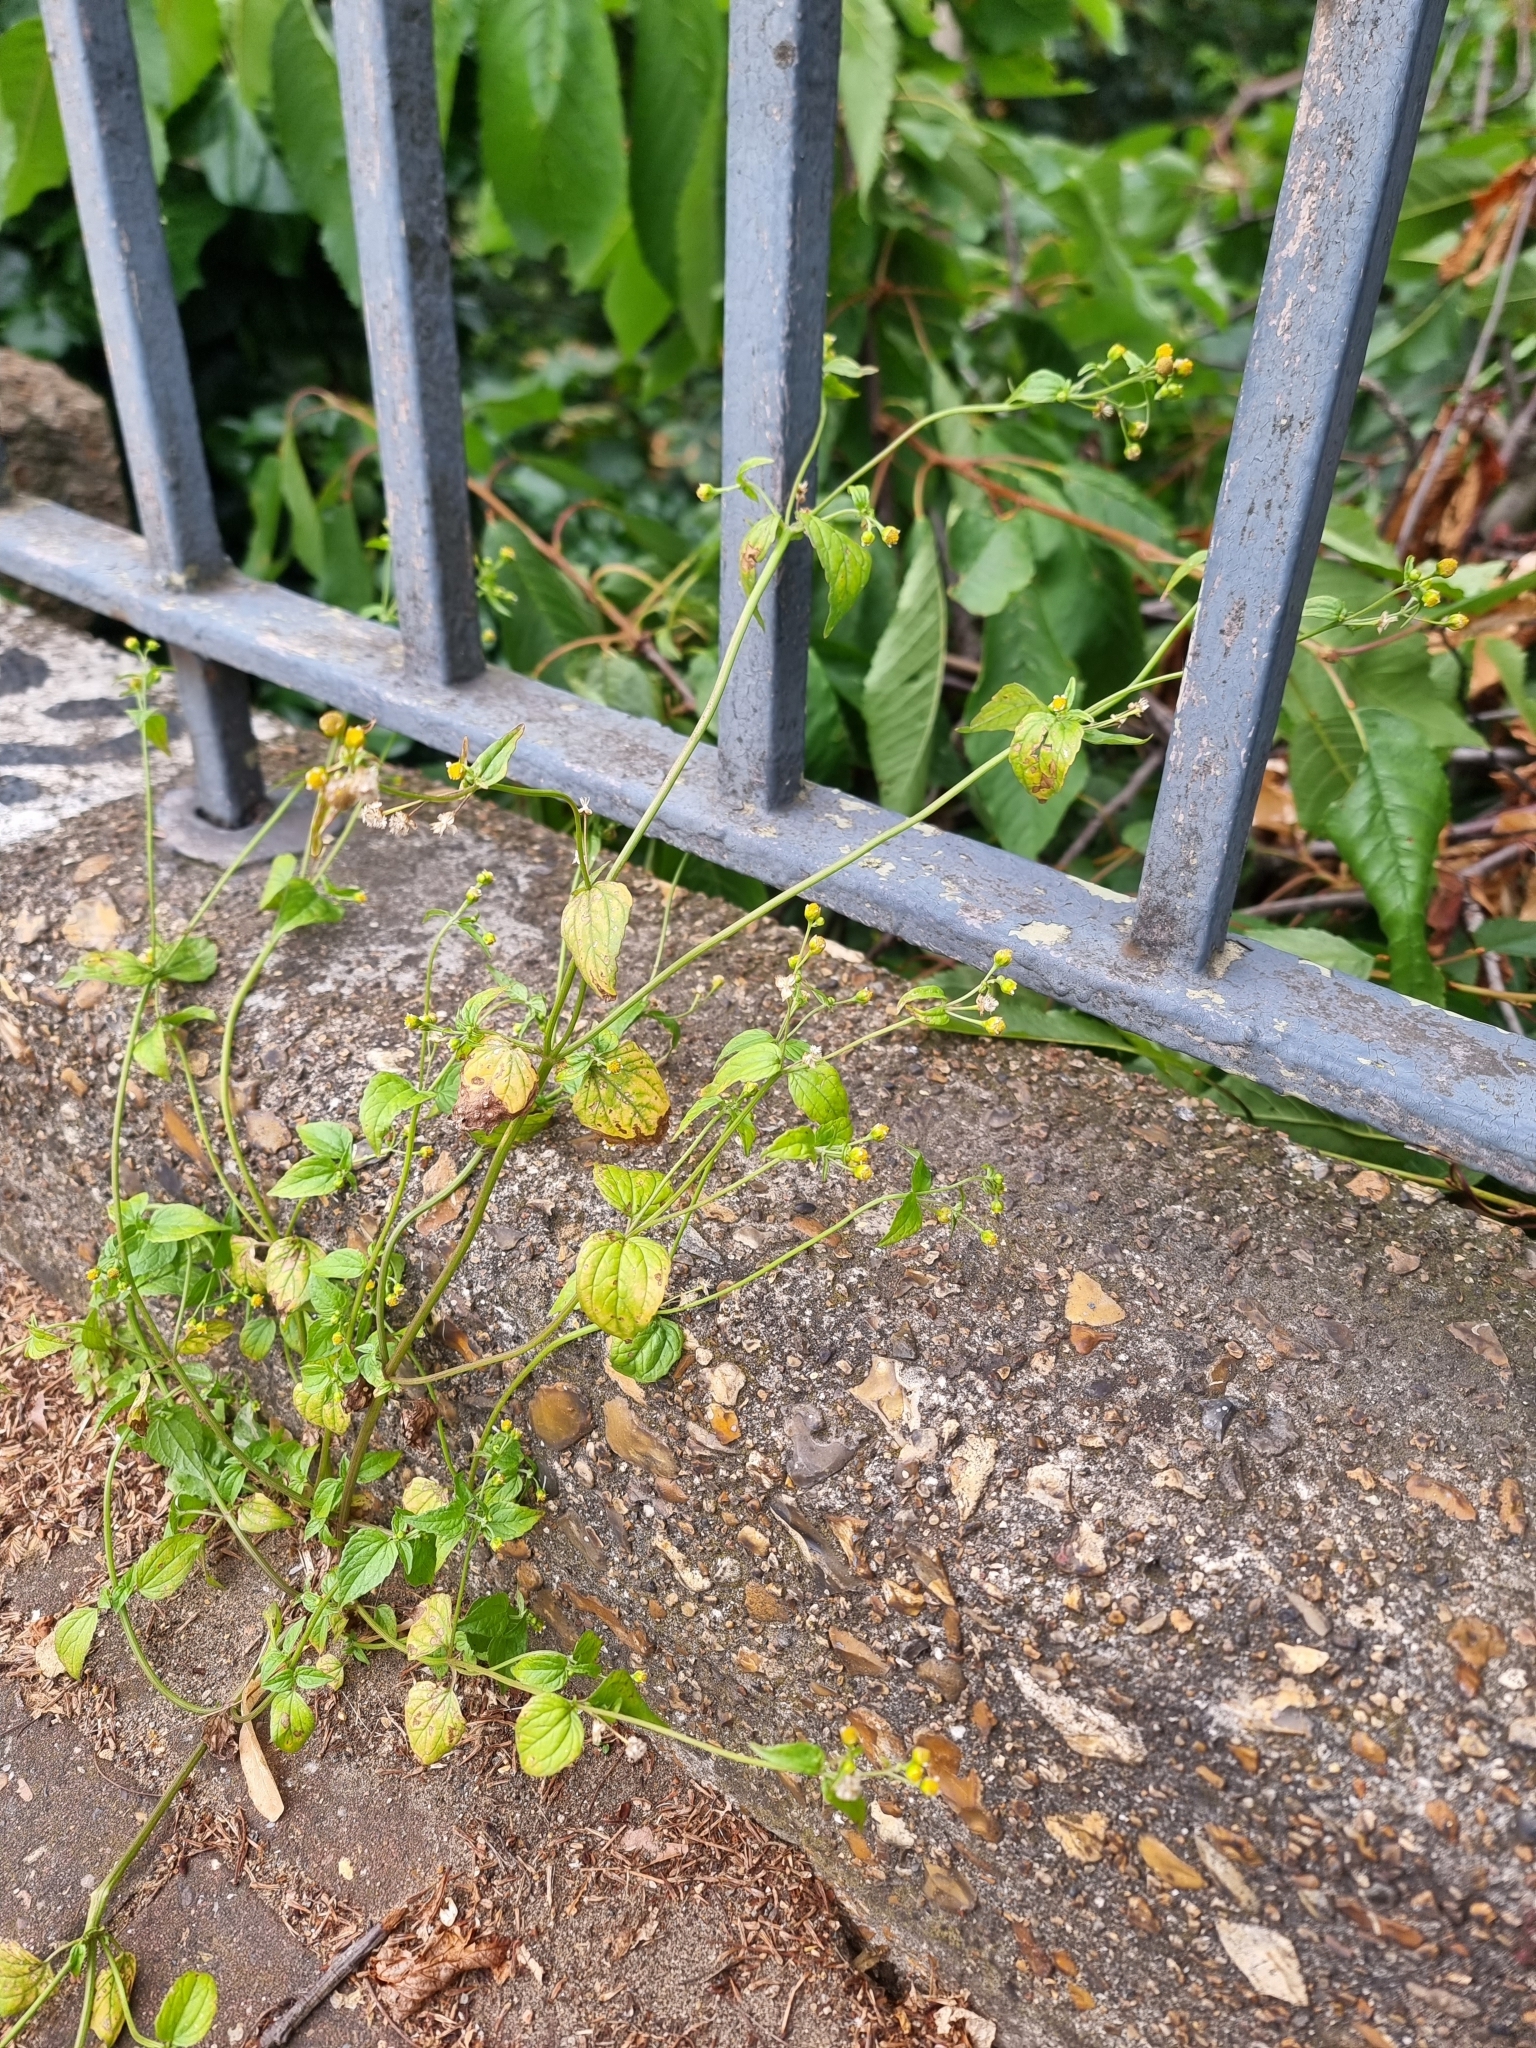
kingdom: Plantae
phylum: Tracheophyta
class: Magnoliopsida
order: Asterales
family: Asteraceae
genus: Galinsoga
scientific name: Galinsoga parviflora
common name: Gallant soldier
